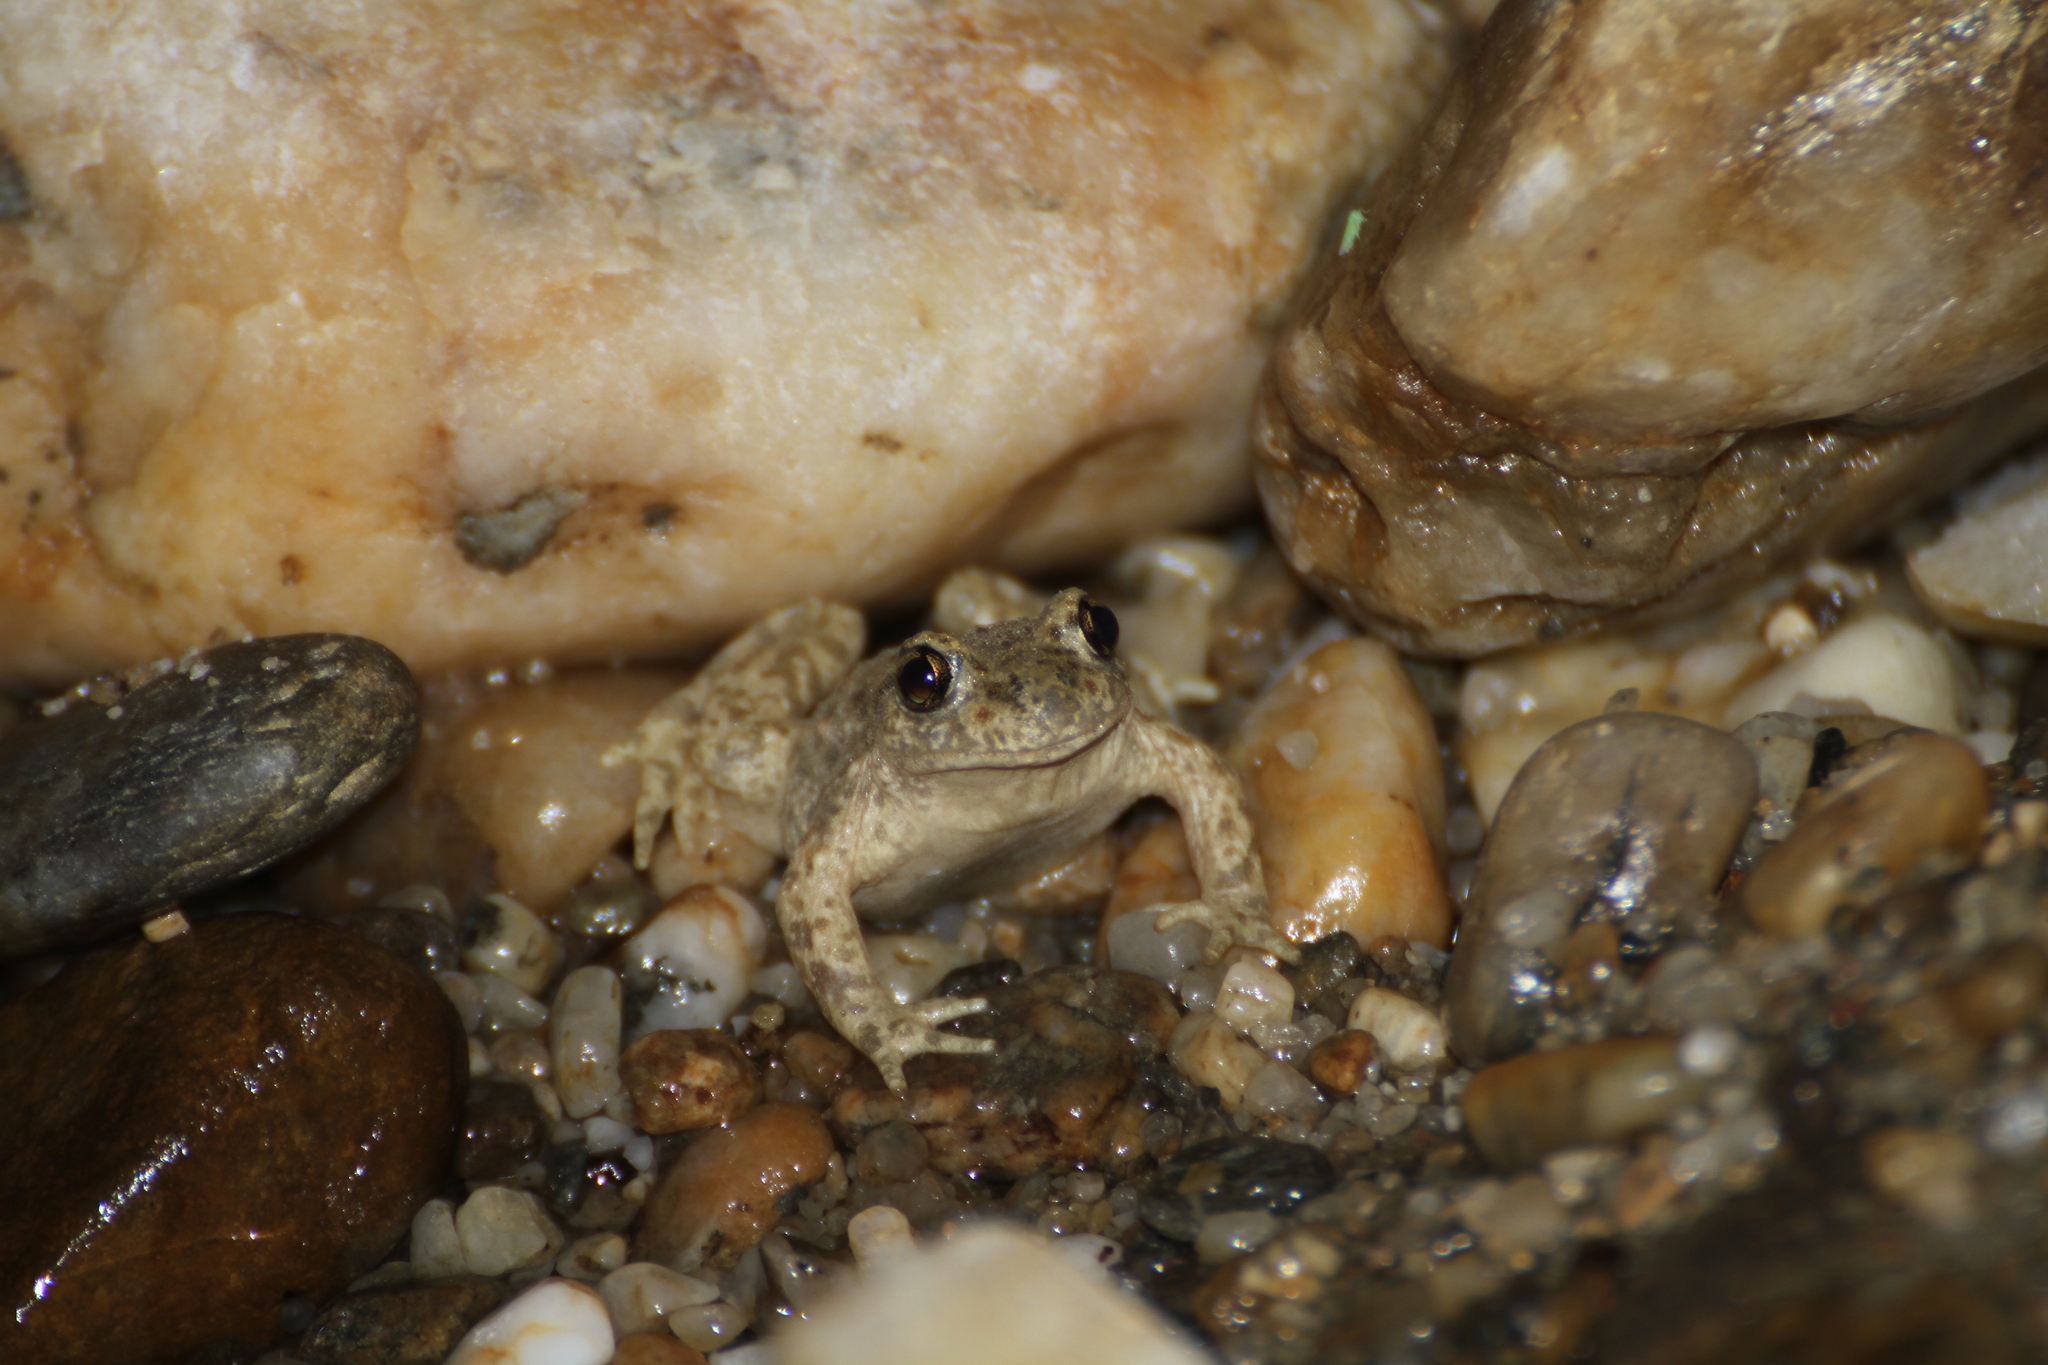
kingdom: Animalia
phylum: Chordata
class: Amphibia
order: Anura
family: Alytidae
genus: Alytes
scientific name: Alytes obstetricans
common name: Midwife toad
